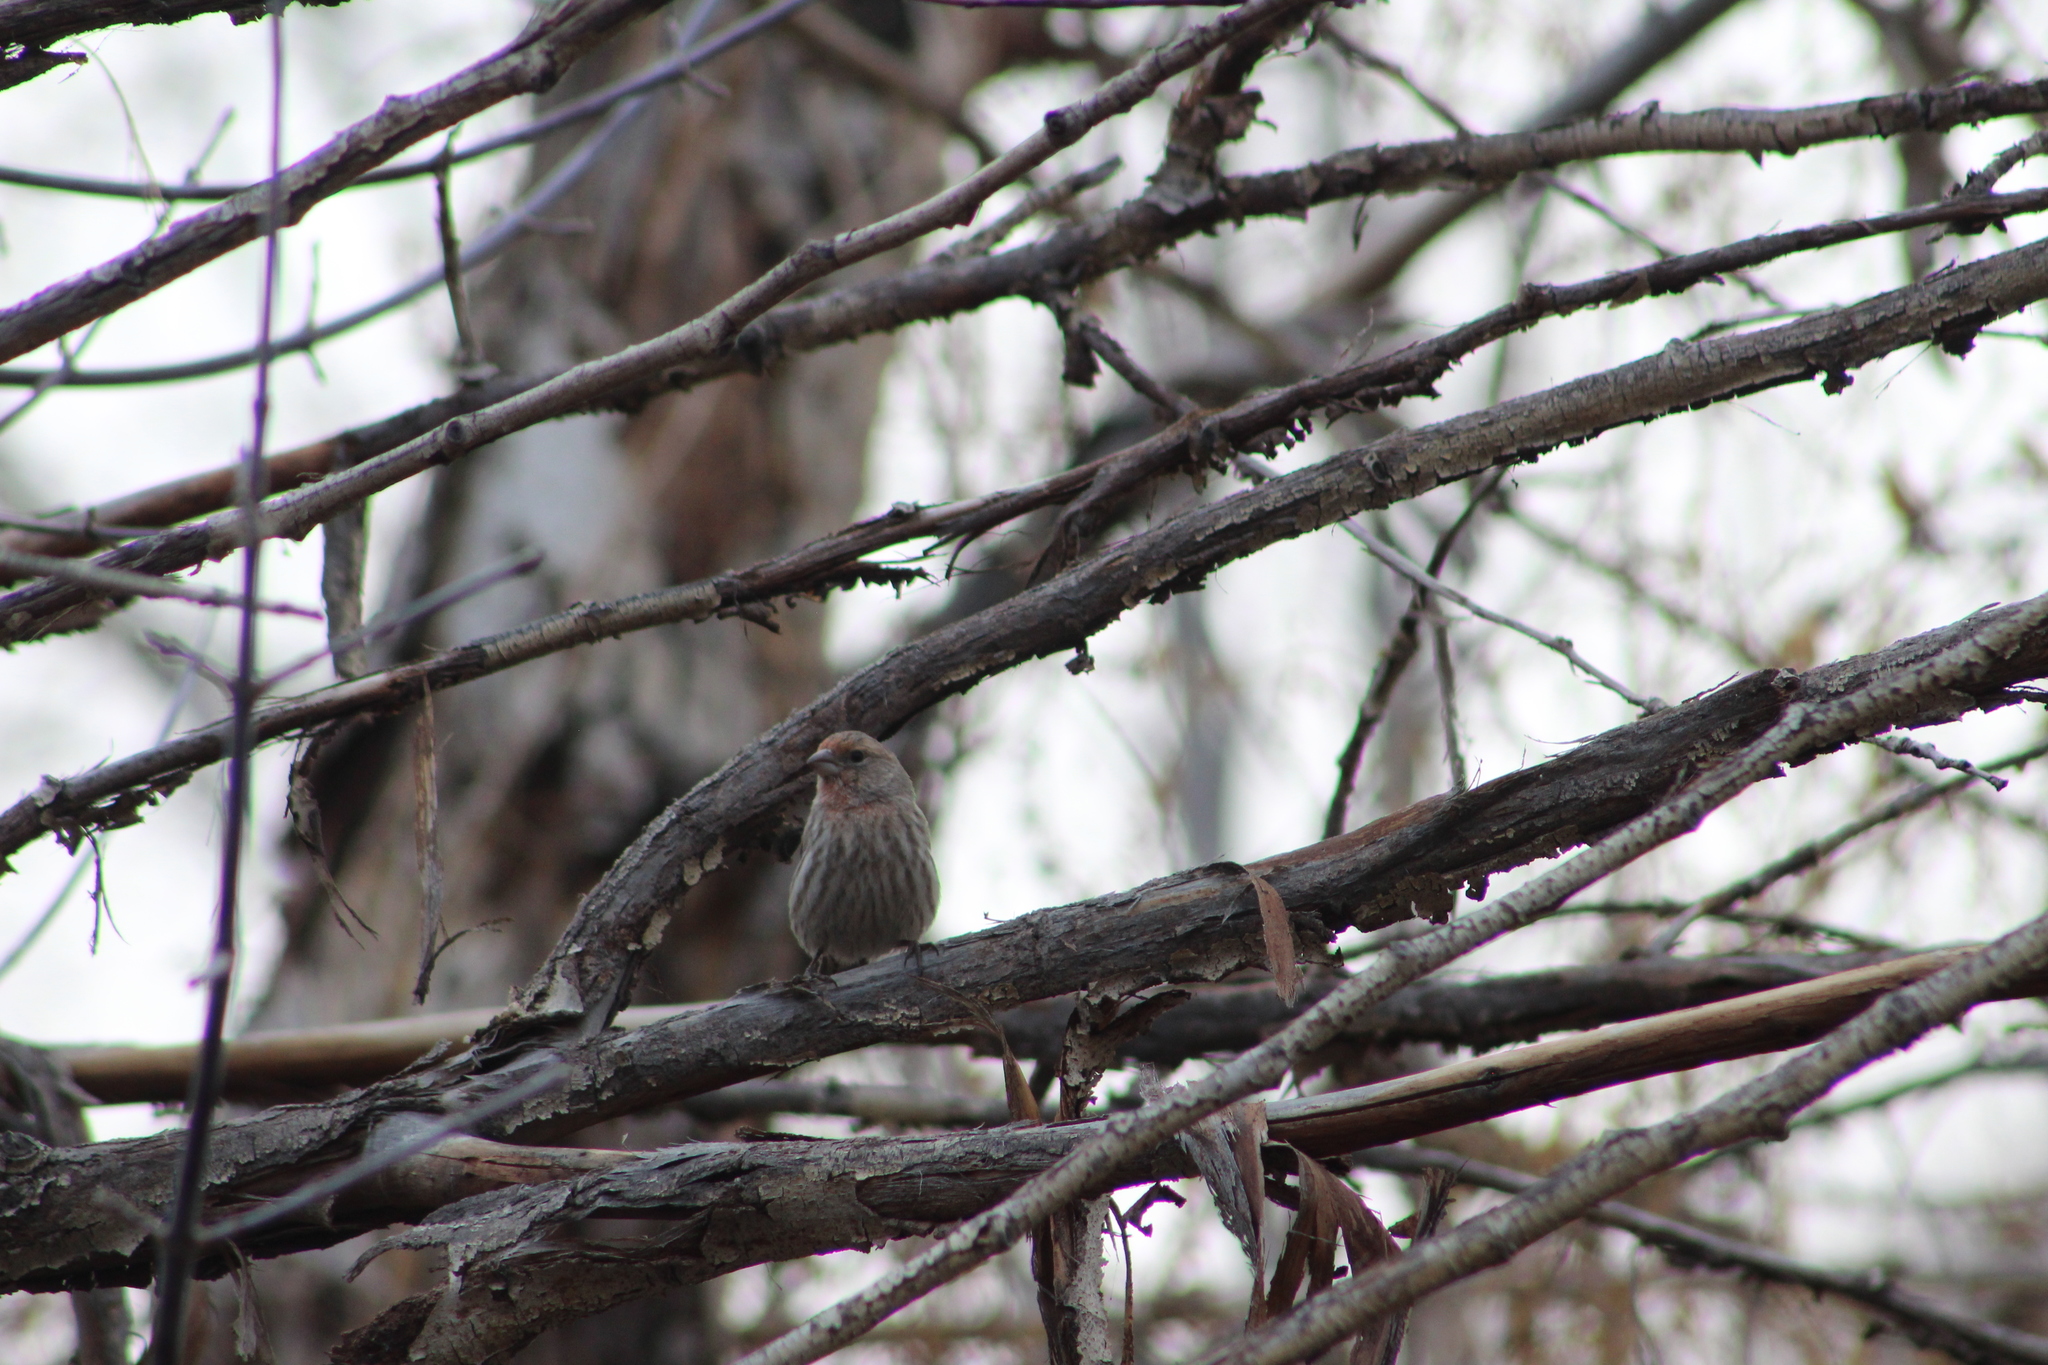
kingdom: Animalia
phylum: Chordata
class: Aves
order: Passeriformes
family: Fringillidae
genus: Haemorhous
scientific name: Haemorhous mexicanus
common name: House finch
